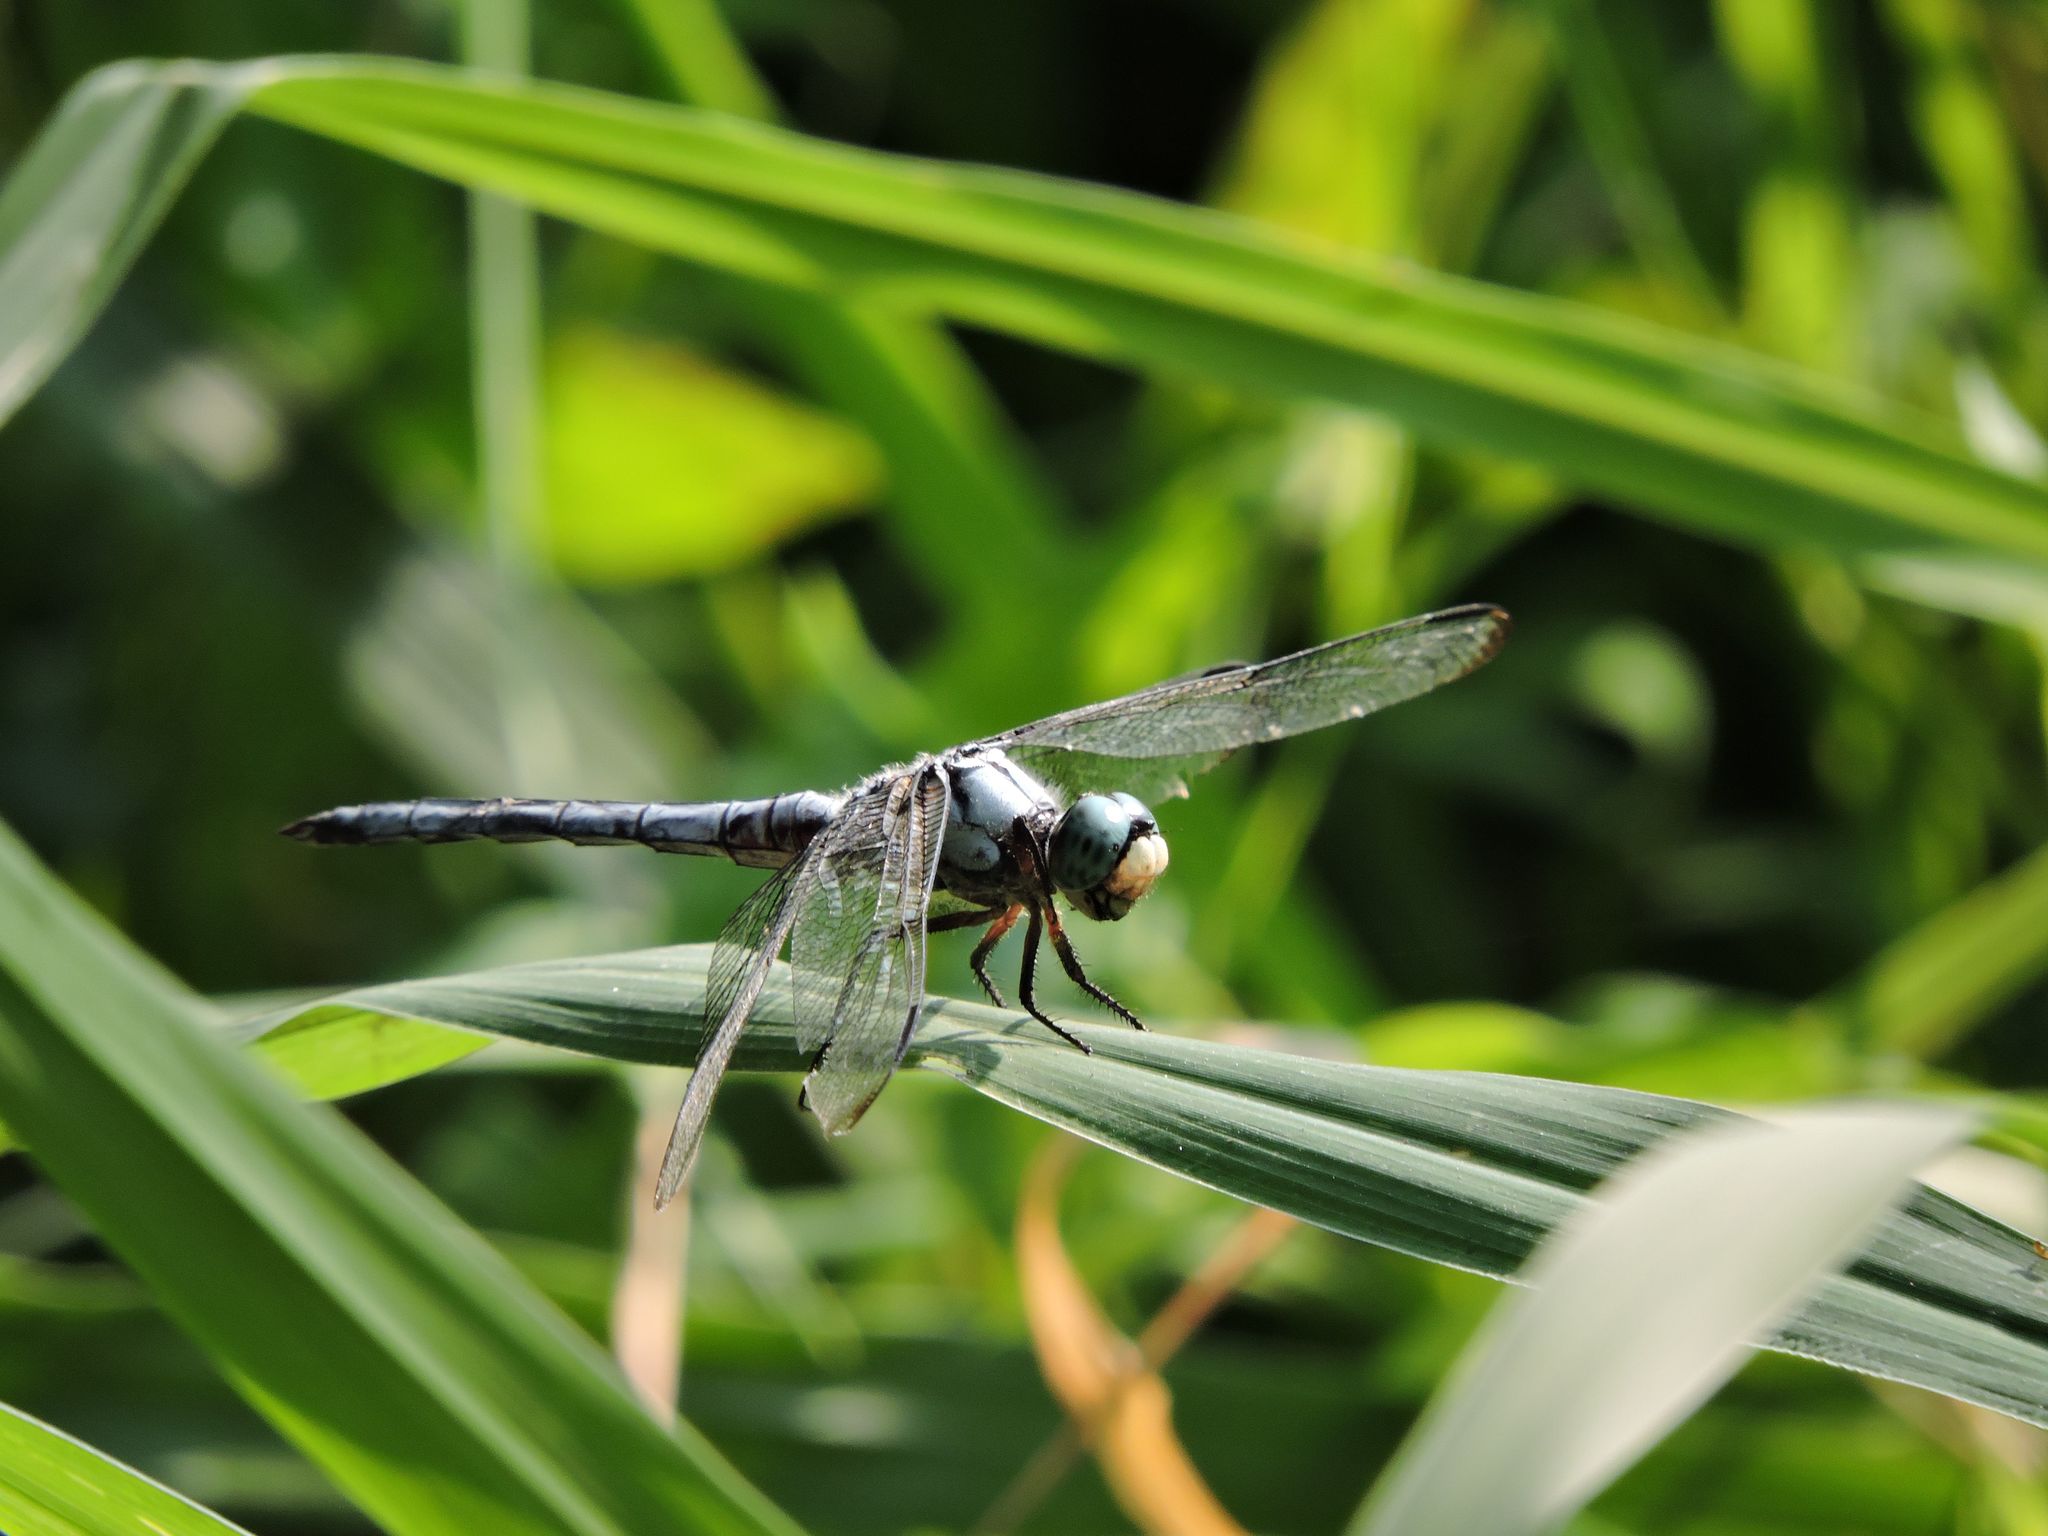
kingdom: Animalia
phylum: Arthropoda
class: Insecta
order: Odonata
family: Libellulidae
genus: Libellula
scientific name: Libellula vibrans
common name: Great blue skimmer
